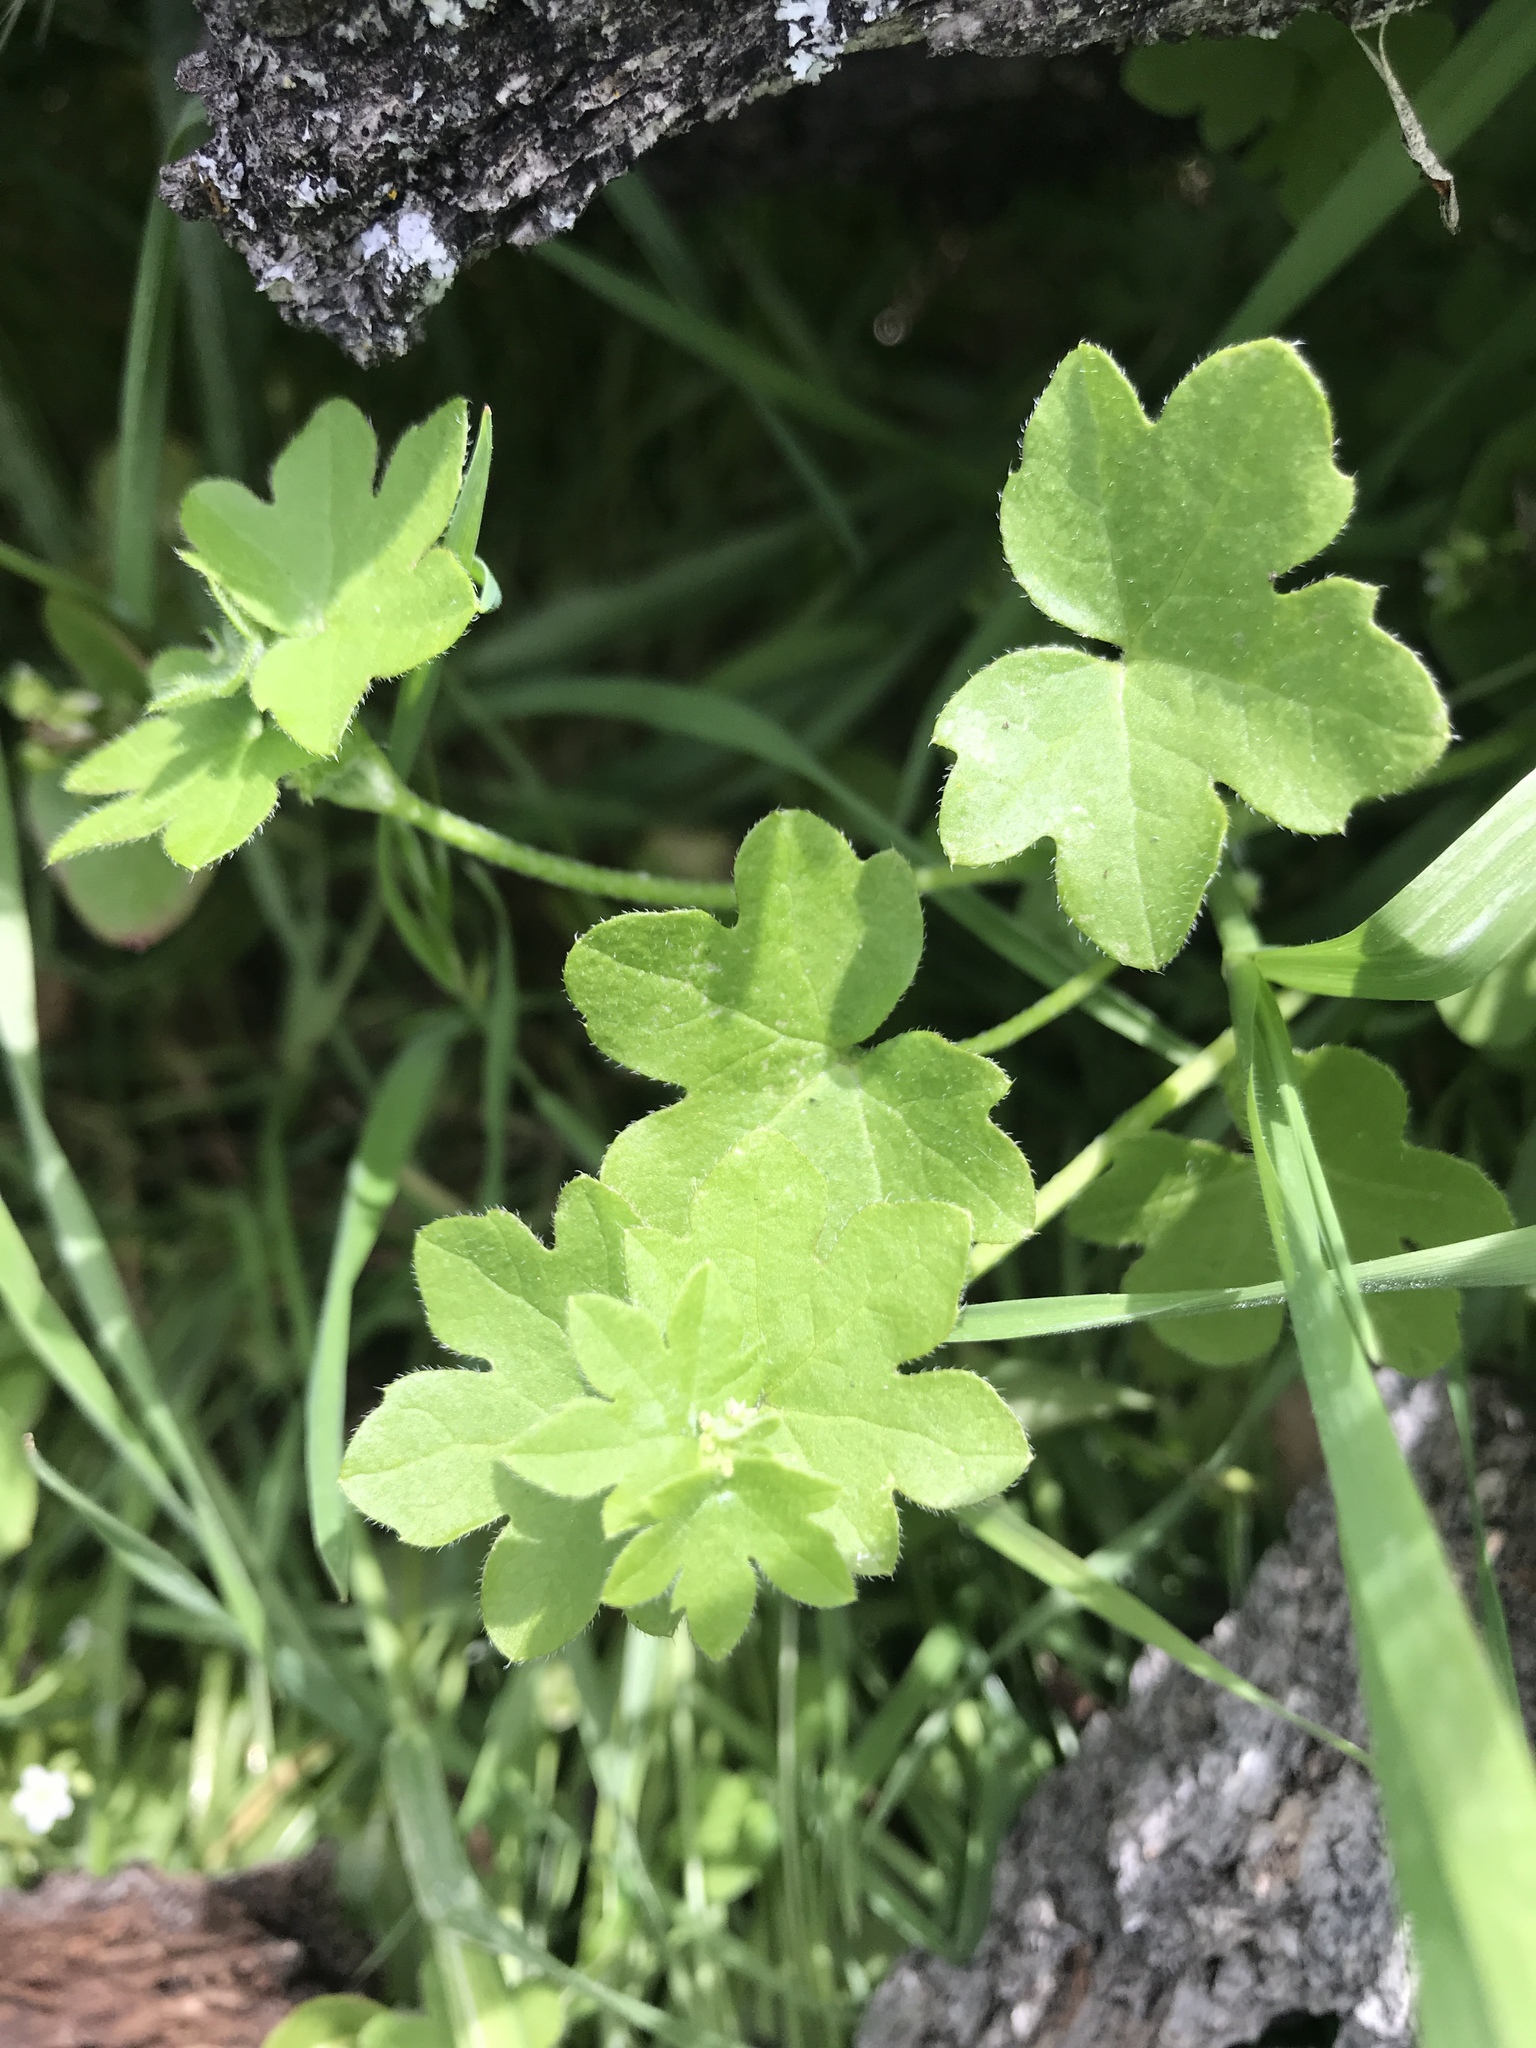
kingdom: Plantae
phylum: Tracheophyta
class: Magnoliopsida
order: Apiales
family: Apiaceae
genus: Bowlesia
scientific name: Bowlesia incana
